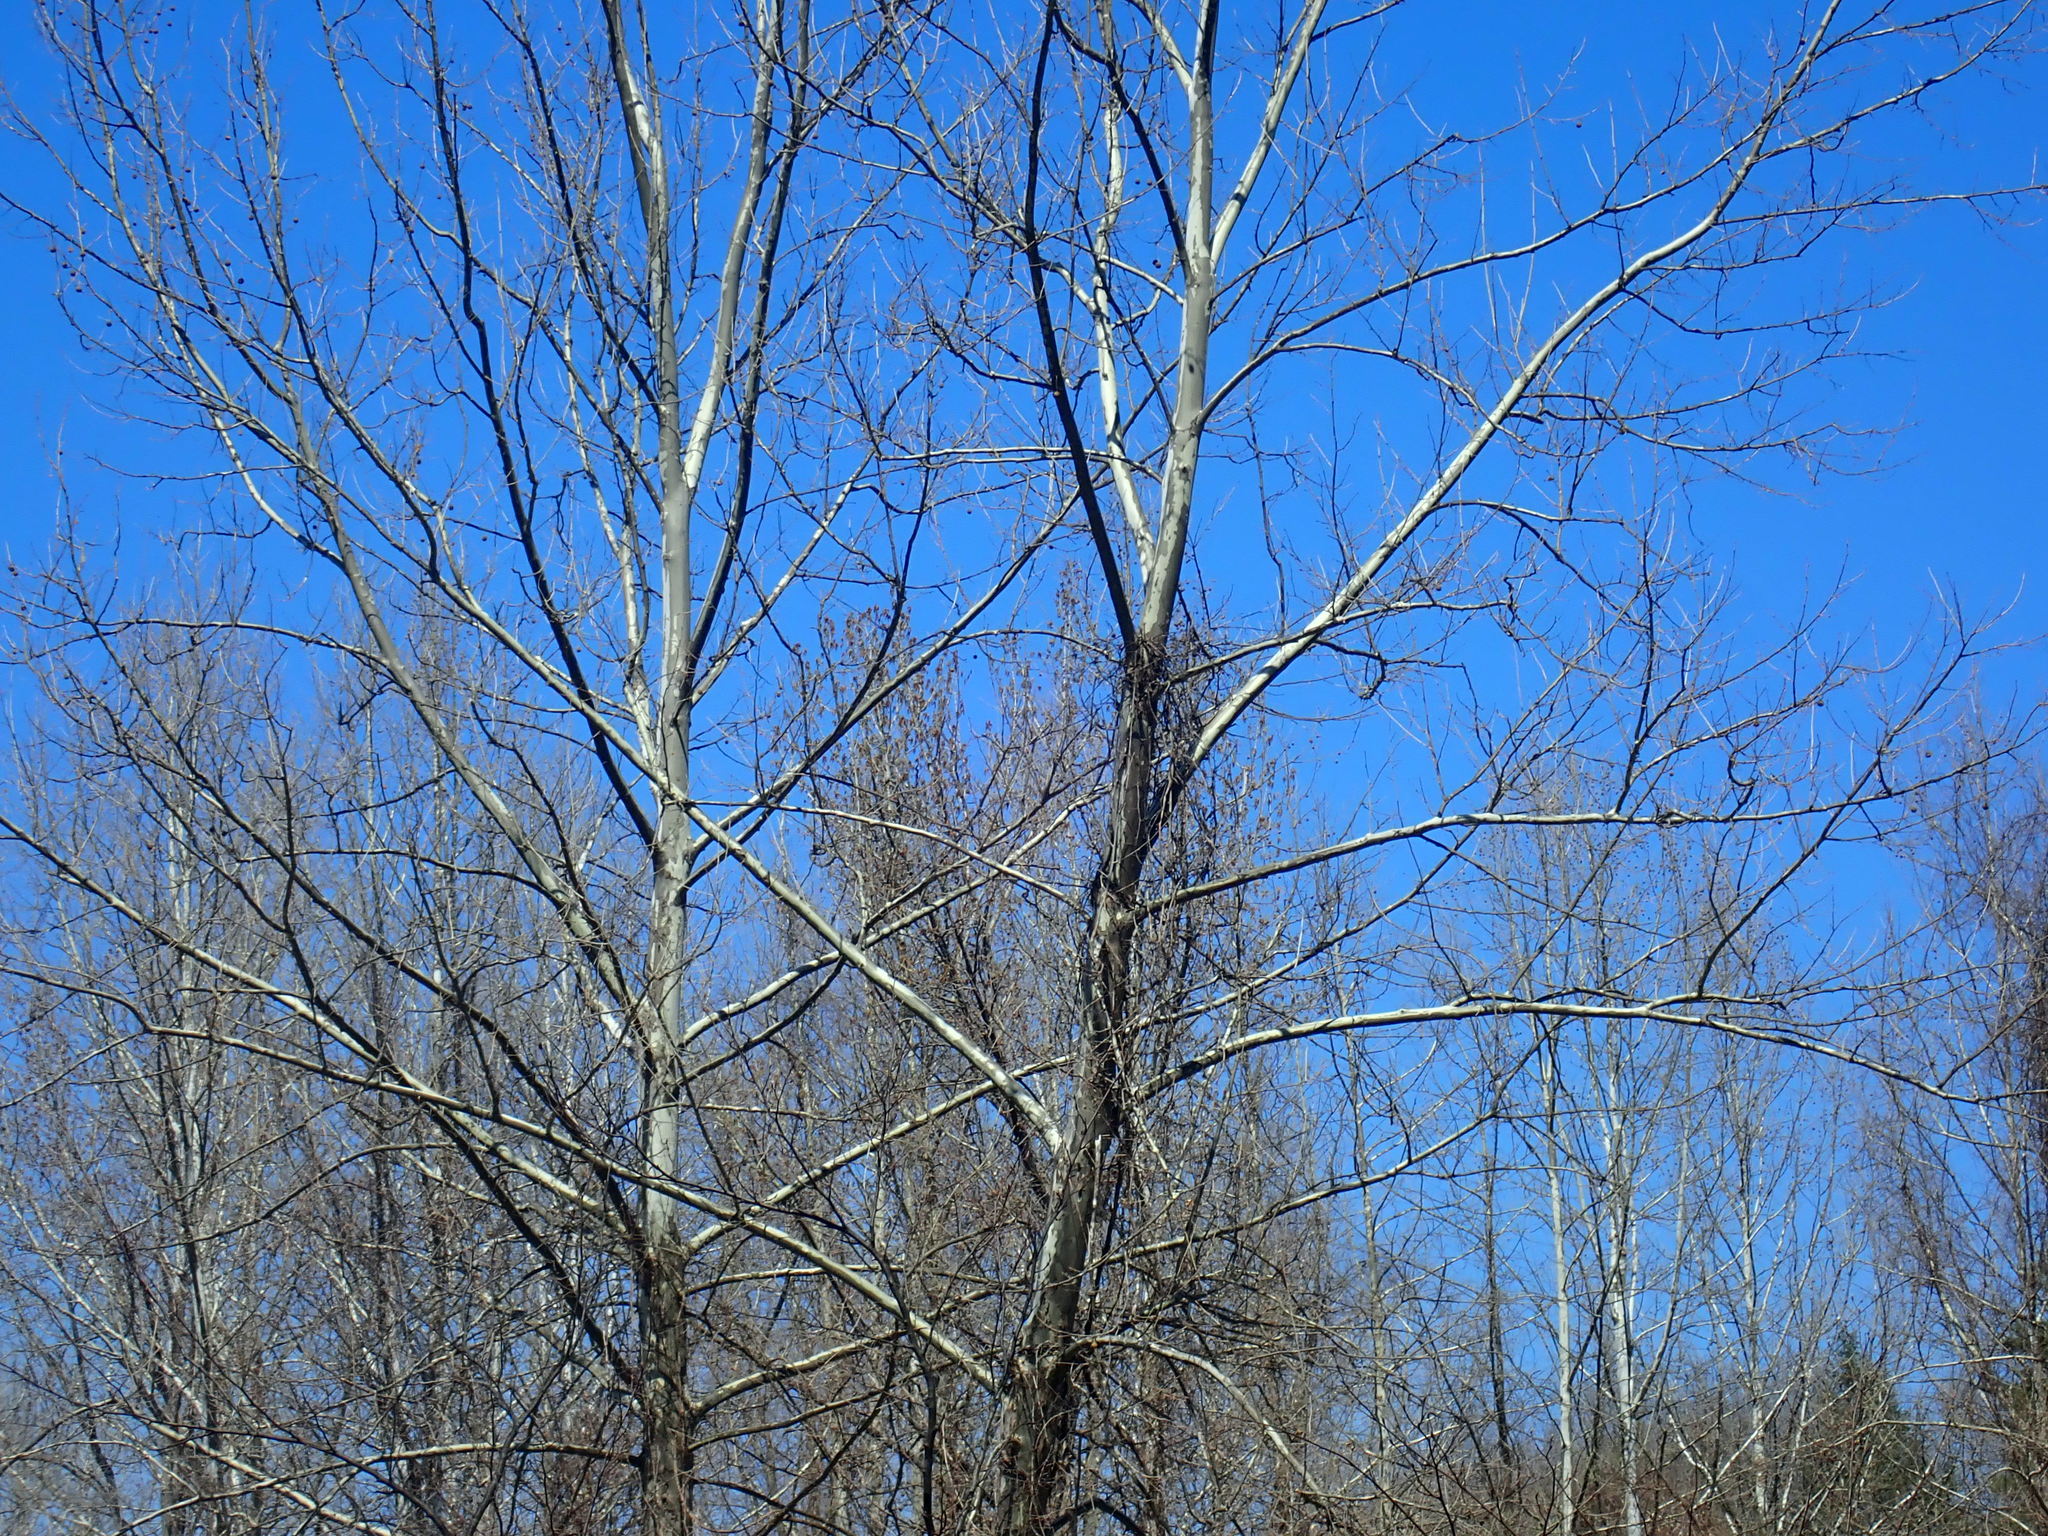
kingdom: Plantae
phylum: Tracheophyta
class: Magnoliopsida
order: Proteales
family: Platanaceae
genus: Platanus
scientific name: Platanus occidentalis
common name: American sycamore
